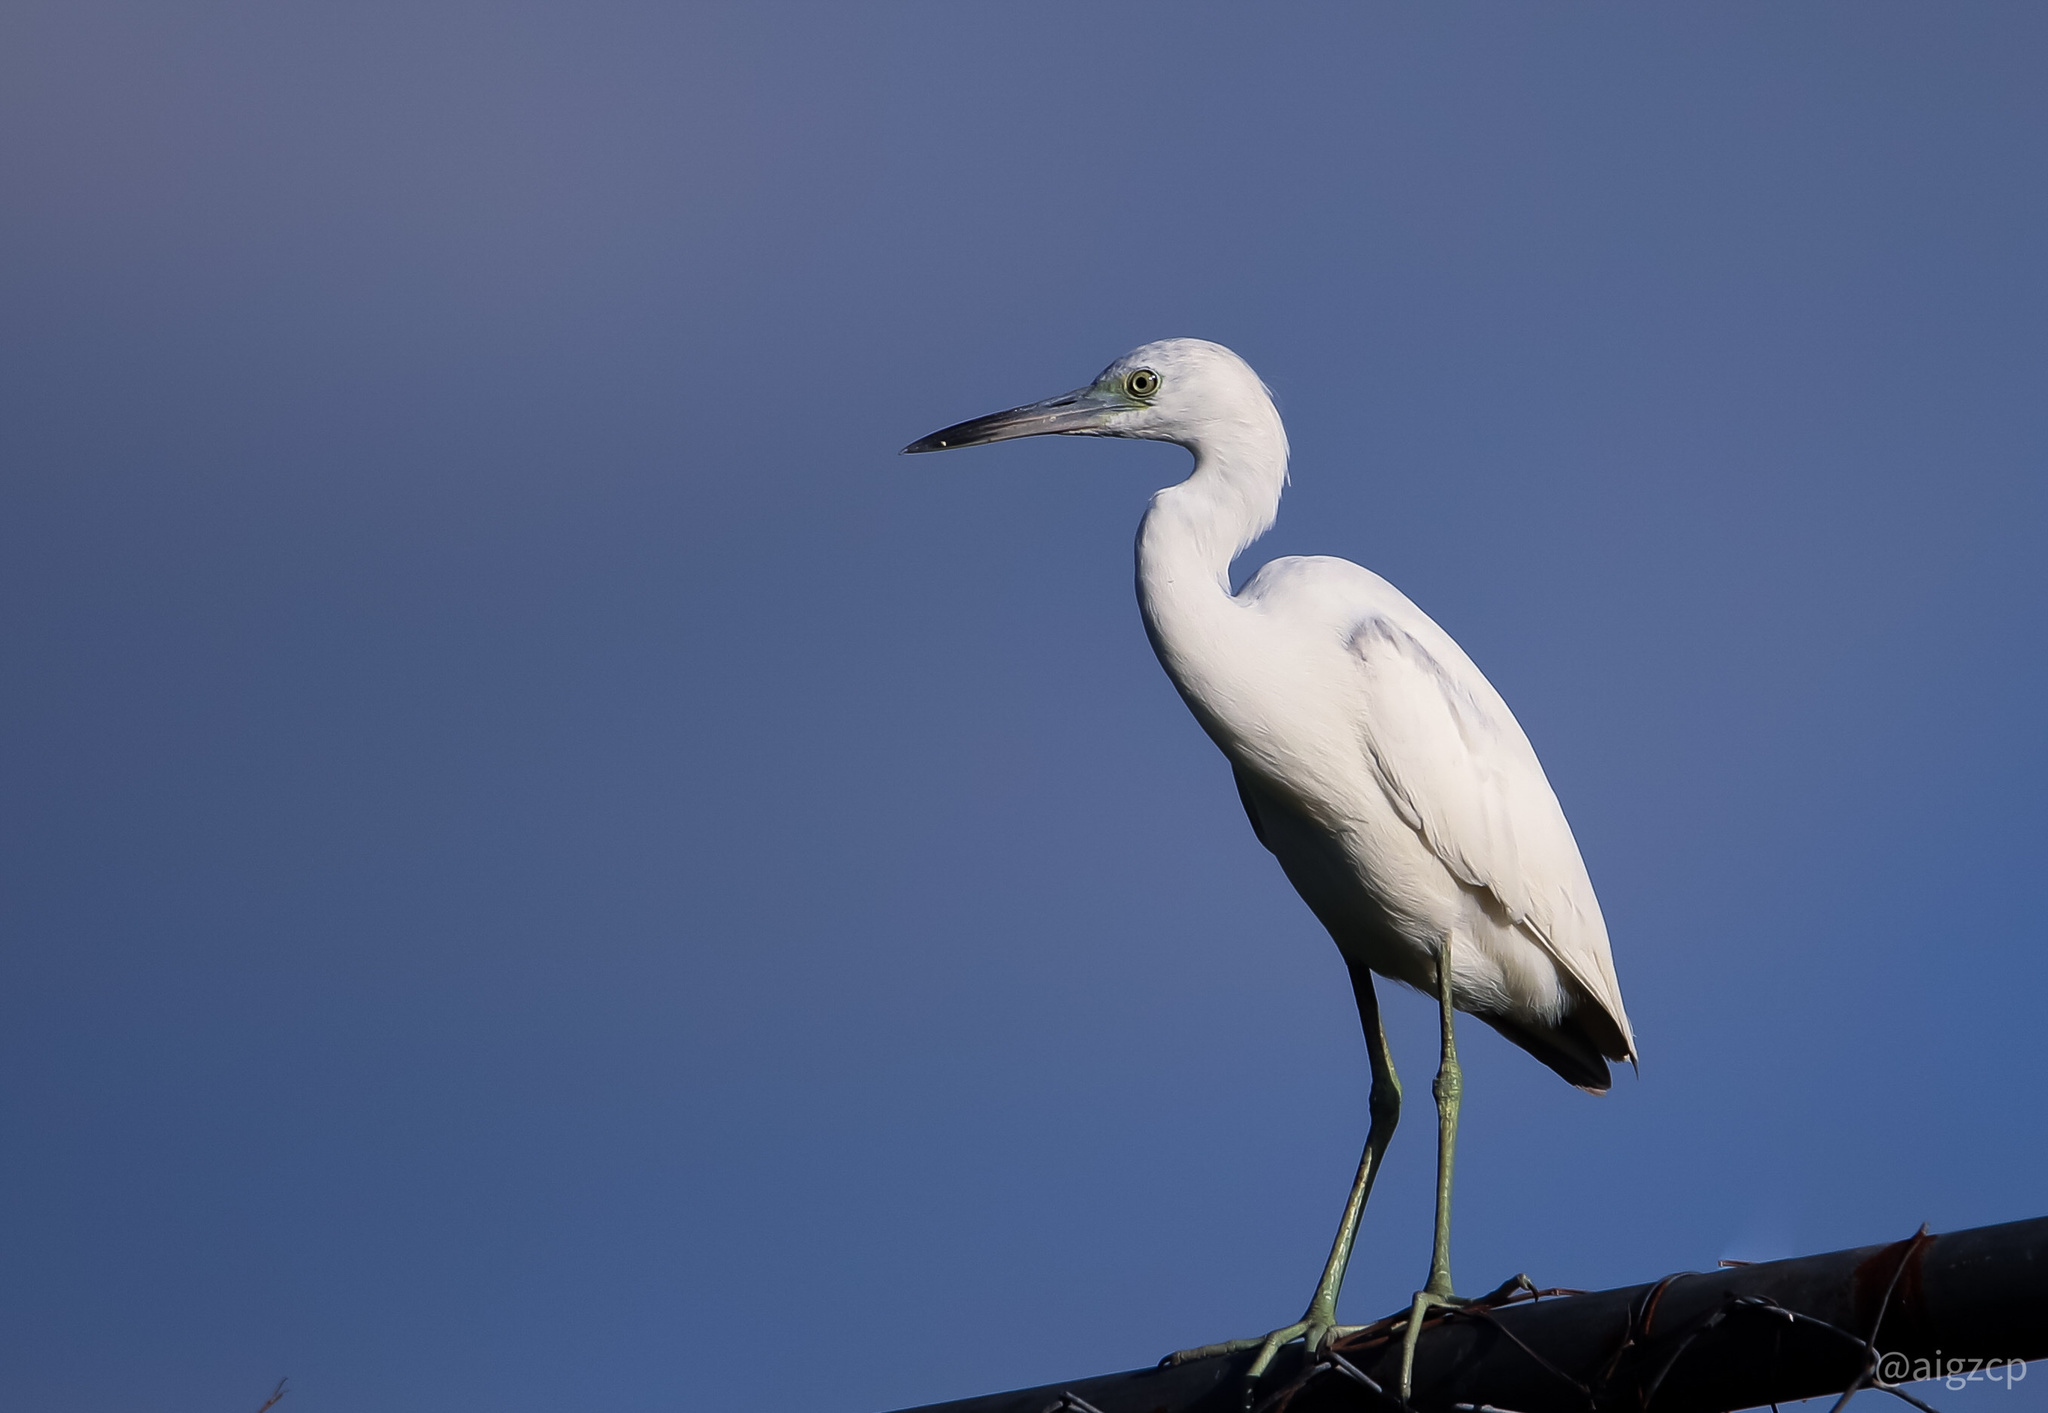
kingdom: Animalia
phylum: Chordata
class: Aves
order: Pelecaniformes
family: Ardeidae
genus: Egretta
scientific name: Egretta caerulea
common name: Little blue heron
